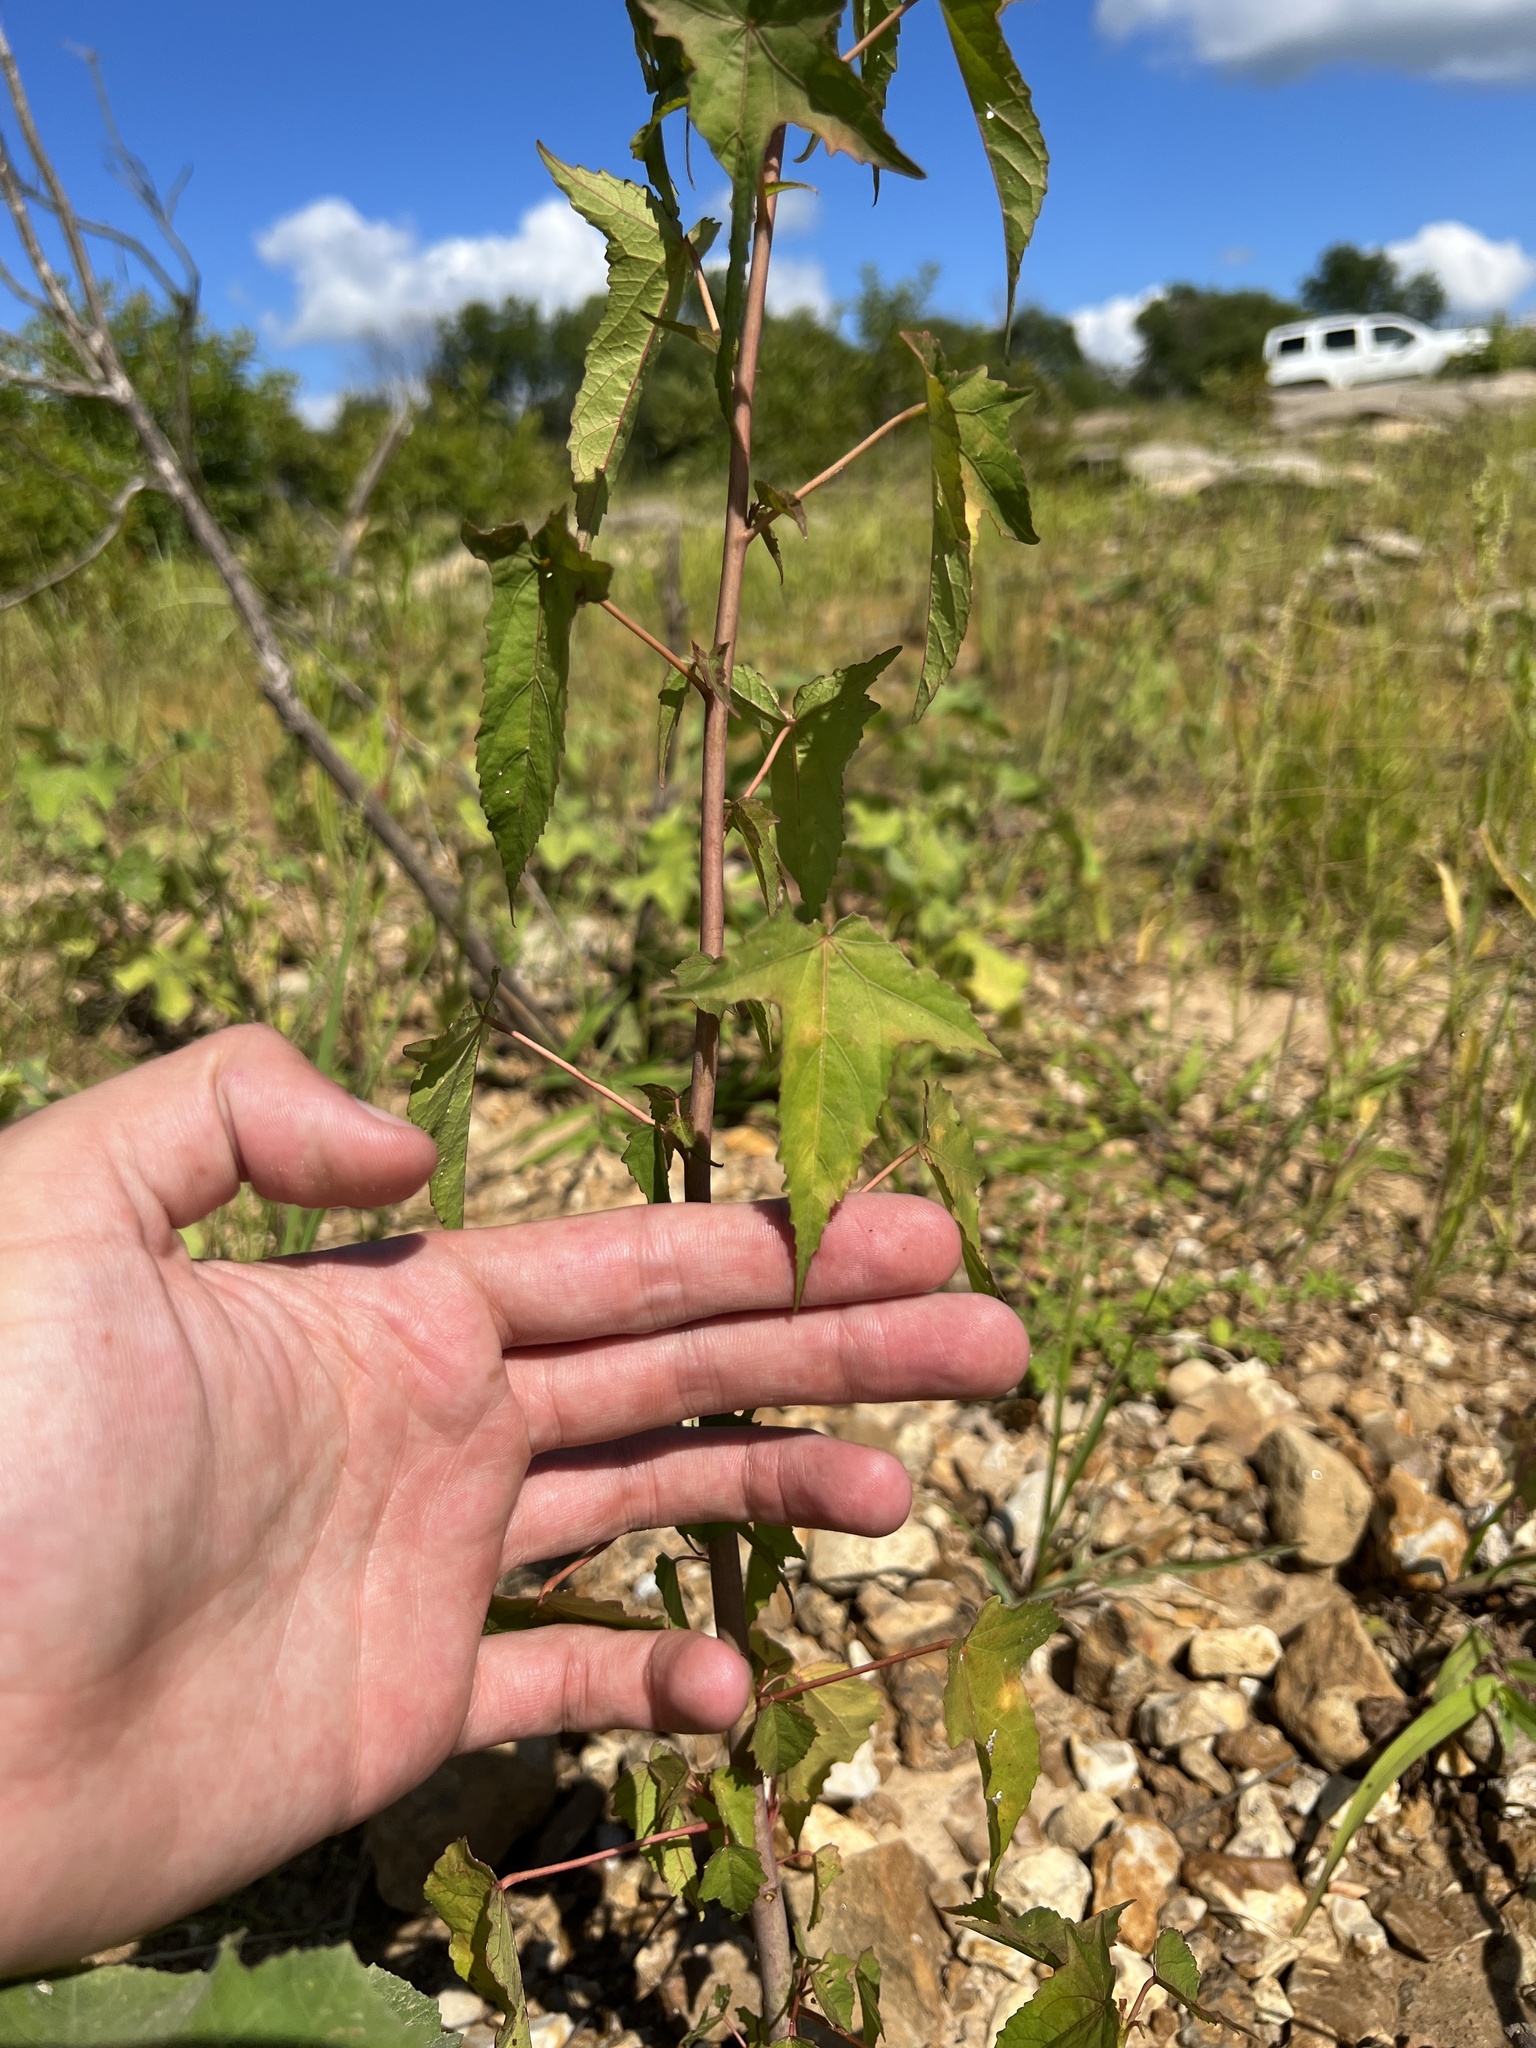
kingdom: Plantae
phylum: Tracheophyta
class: Magnoliopsida
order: Malvales
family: Malvaceae
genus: Hibiscus
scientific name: Hibiscus laevis
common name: Scarlet rose-mallow
